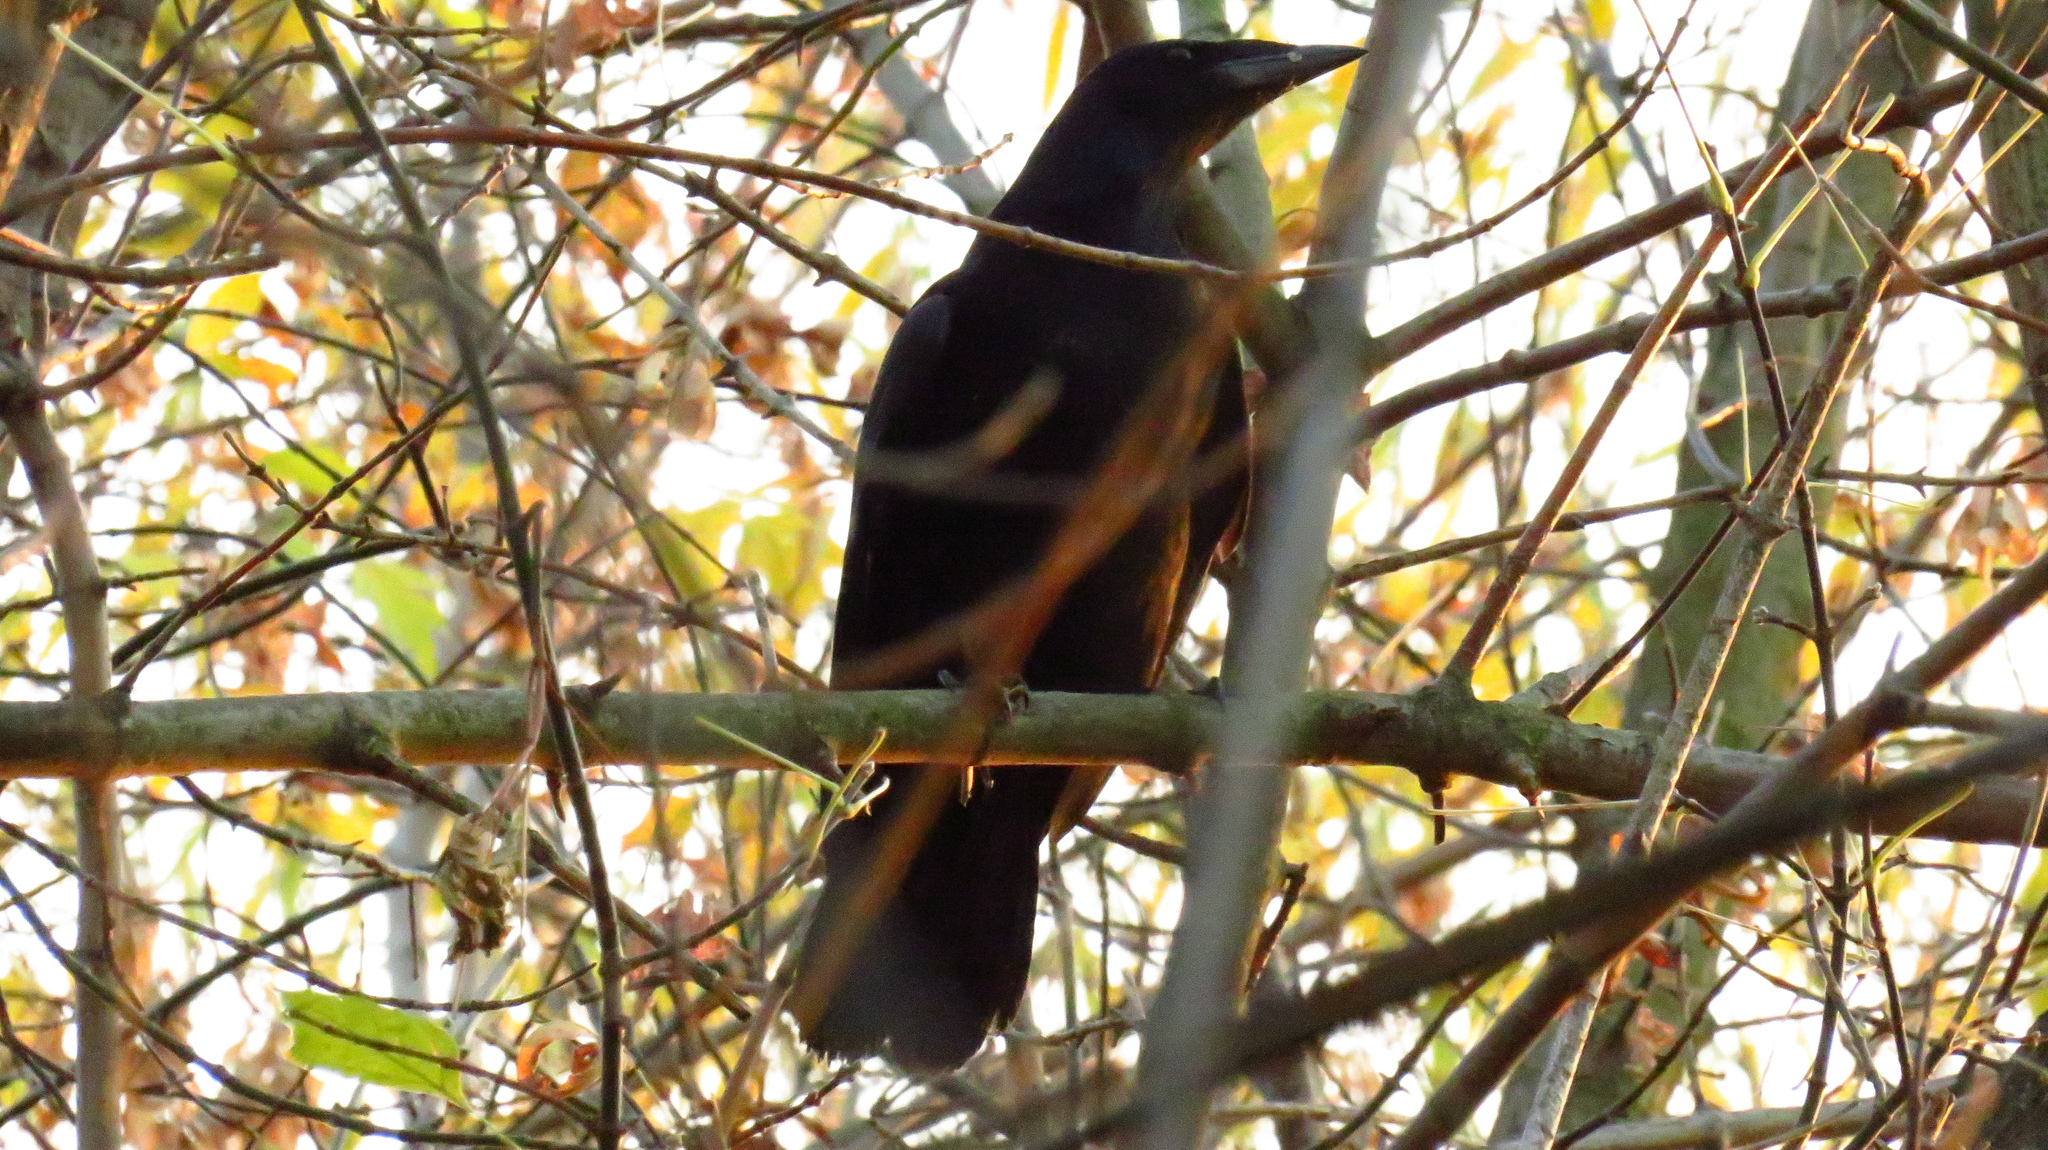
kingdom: Animalia
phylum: Chordata
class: Aves
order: Passeriformes
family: Corvidae
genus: Corvus
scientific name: Corvus frugilegus
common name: Rook
